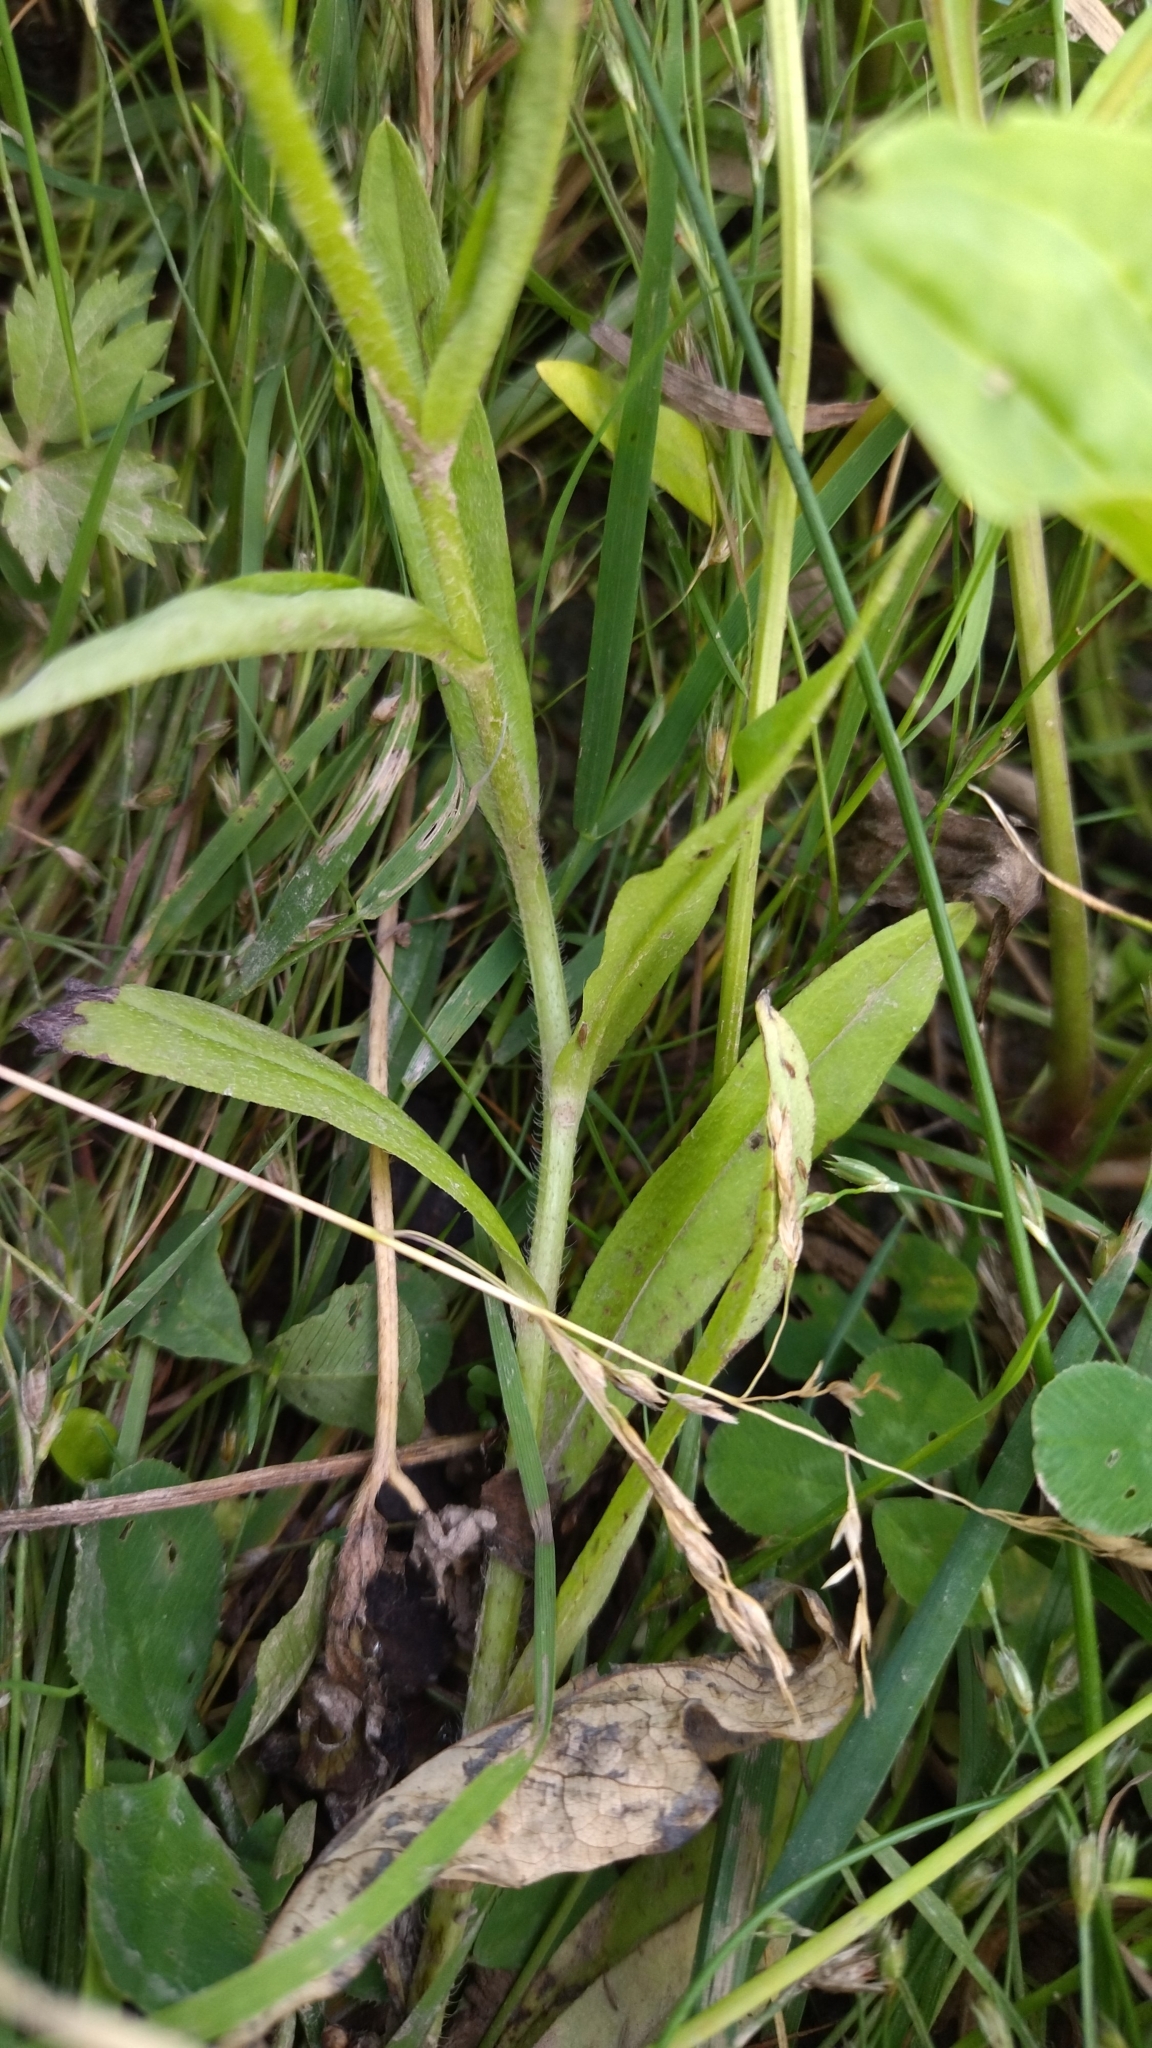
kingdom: Plantae
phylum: Tracheophyta
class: Magnoliopsida
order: Boraginales
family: Boraginaceae
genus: Myosotis
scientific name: Myosotis scorpioides
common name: Water forget-me-not
